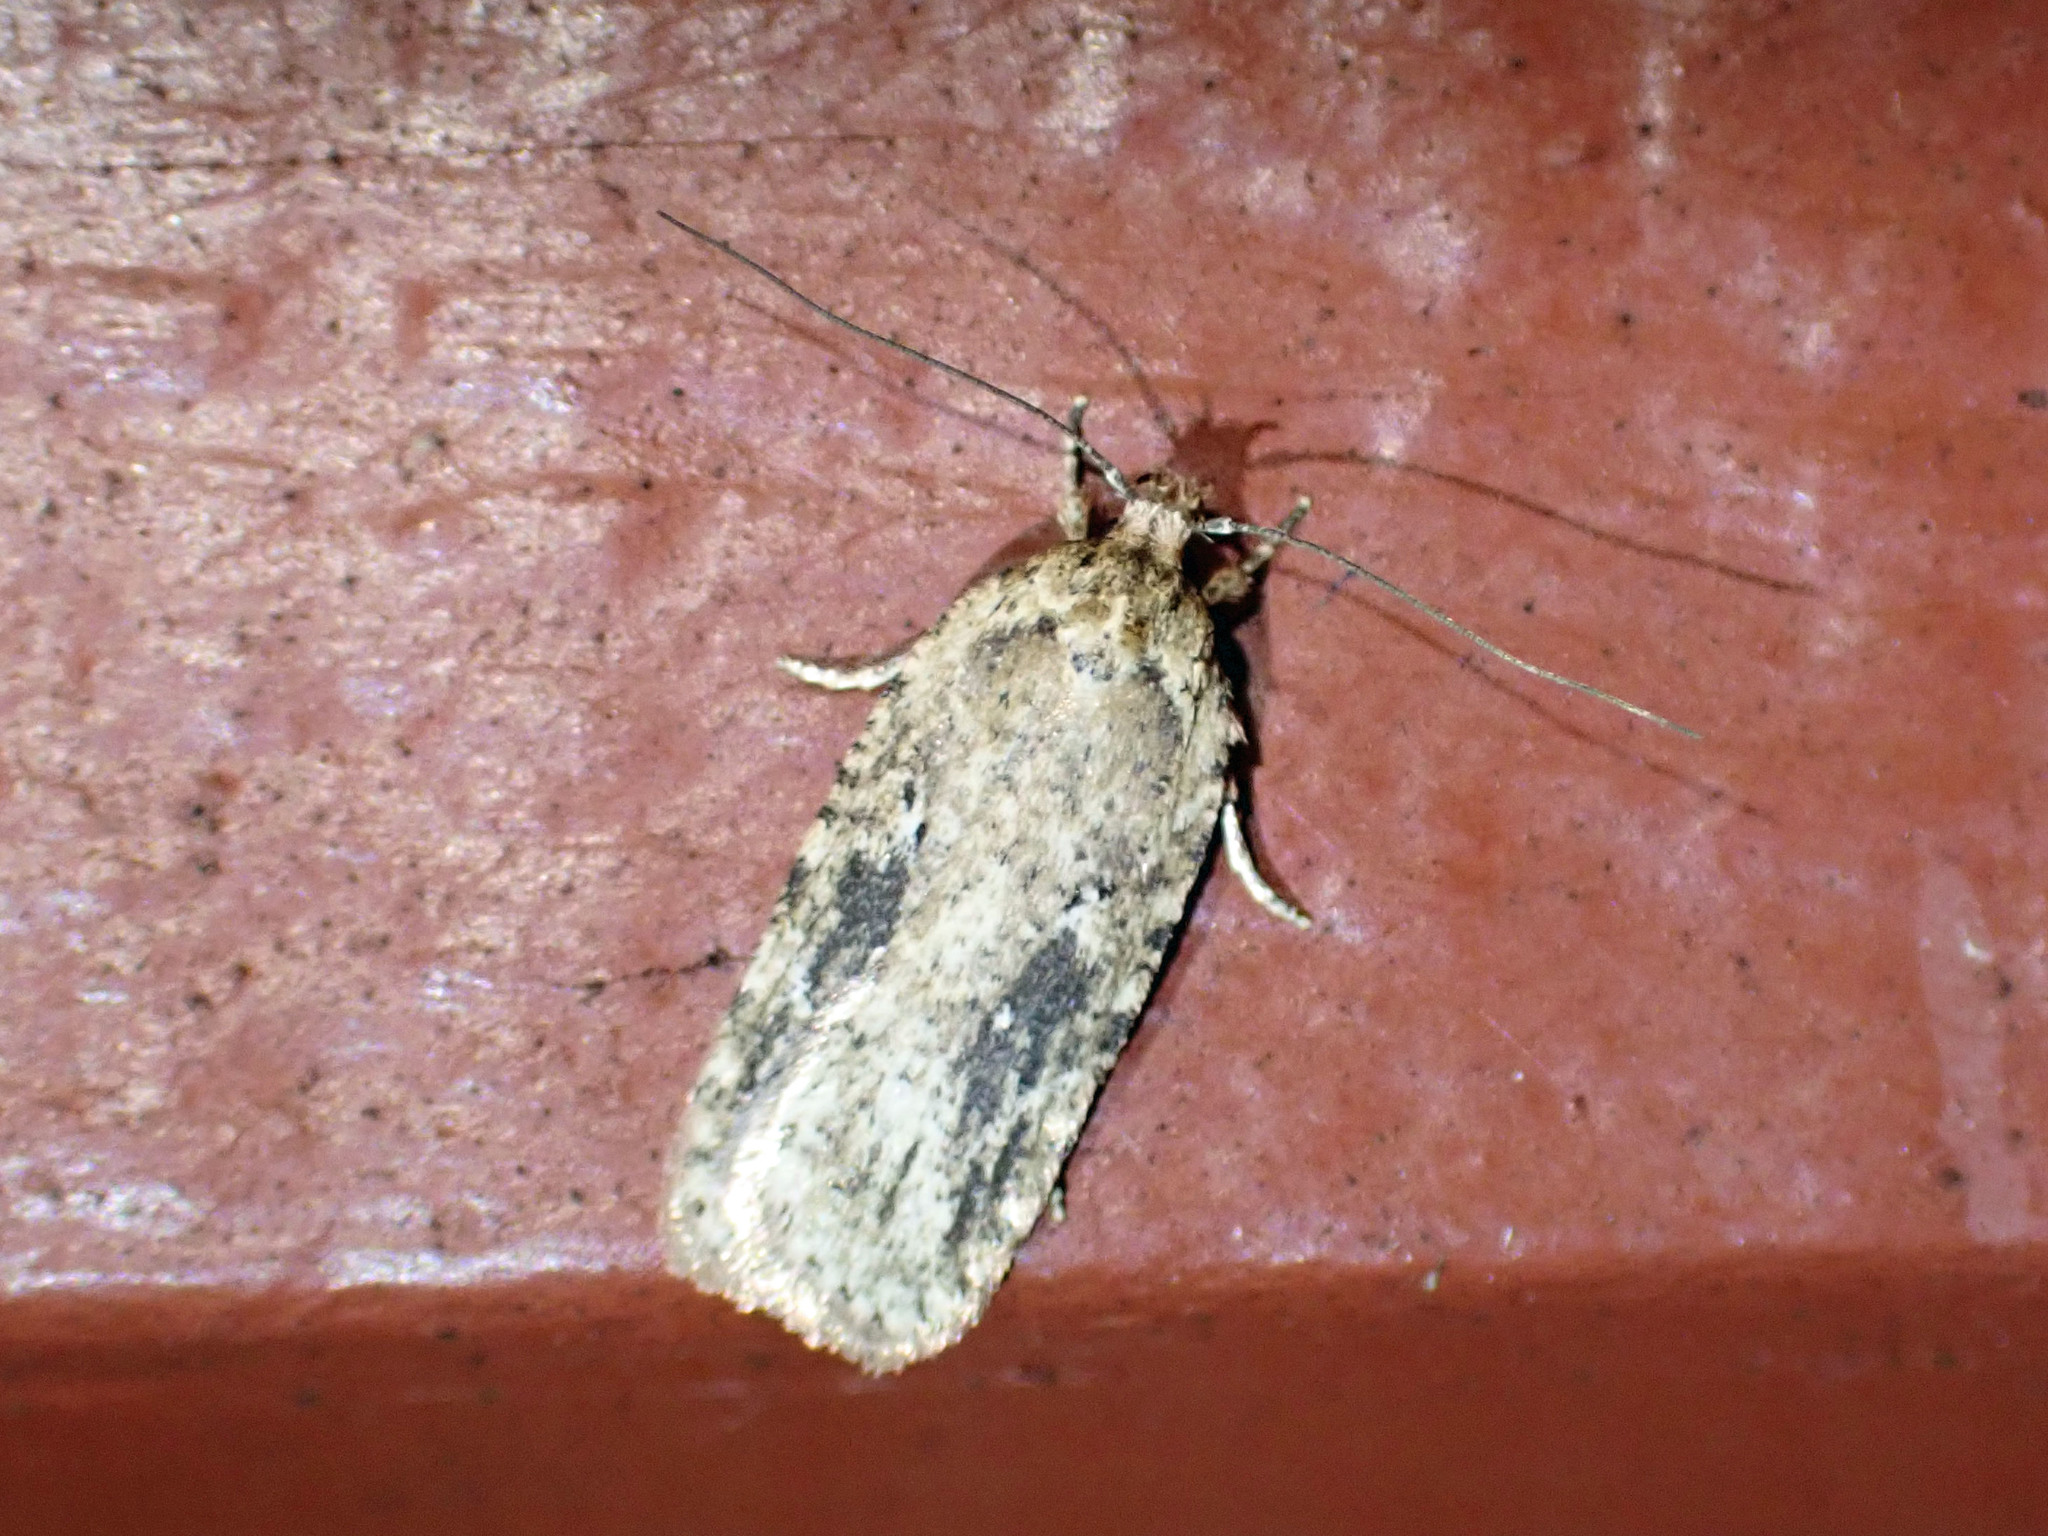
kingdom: Animalia
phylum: Arthropoda
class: Insecta
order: Lepidoptera
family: Depressariidae
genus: Agonopterix
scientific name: Agonopterix pulvipennella
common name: Goldenrod leafffolder
